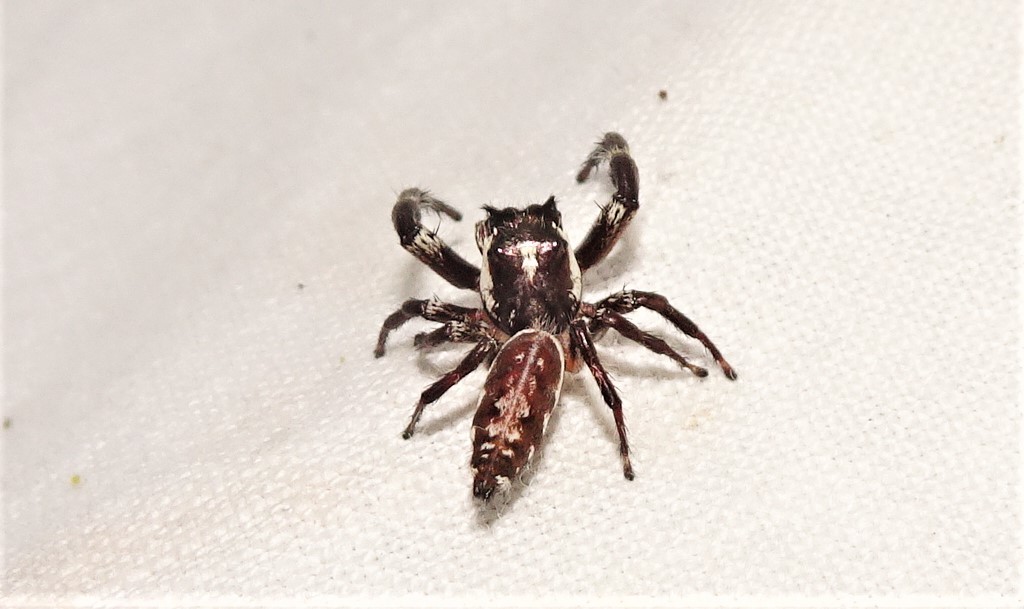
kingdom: Animalia
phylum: Arthropoda
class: Arachnida
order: Araneae
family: Salticidae
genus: Sandalodes
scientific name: Sandalodes bipenicillatus
